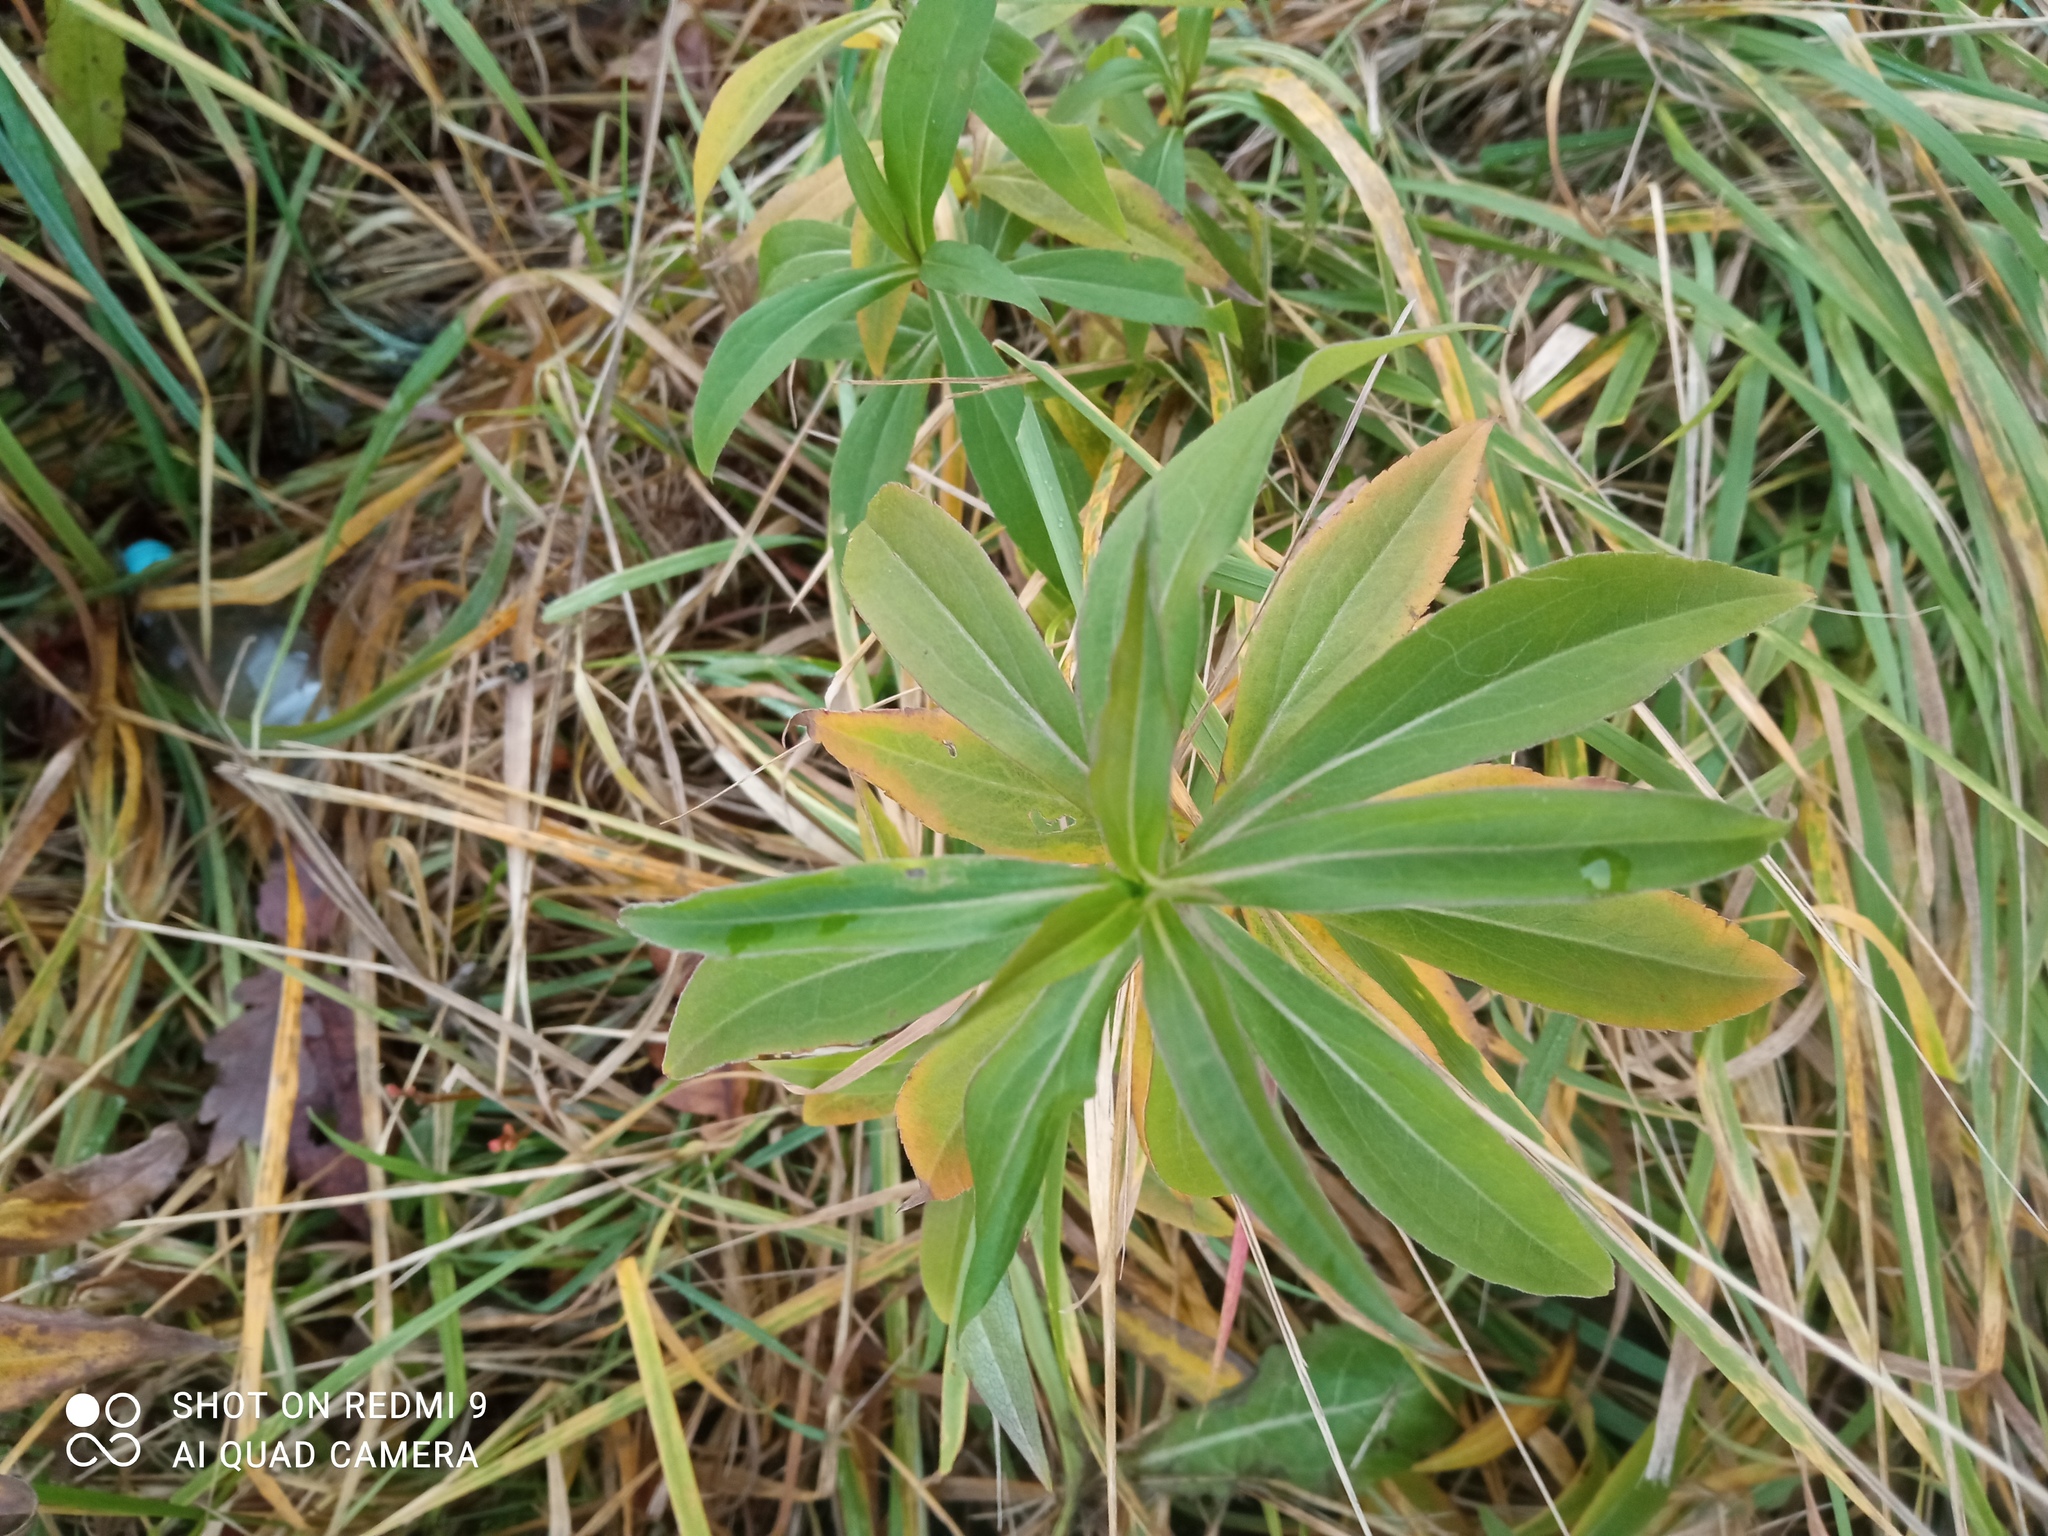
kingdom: Plantae
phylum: Tracheophyta
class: Magnoliopsida
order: Asterales
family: Asteraceae
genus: Solidago
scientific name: Solidago gigantea
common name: Giant goldenrod
